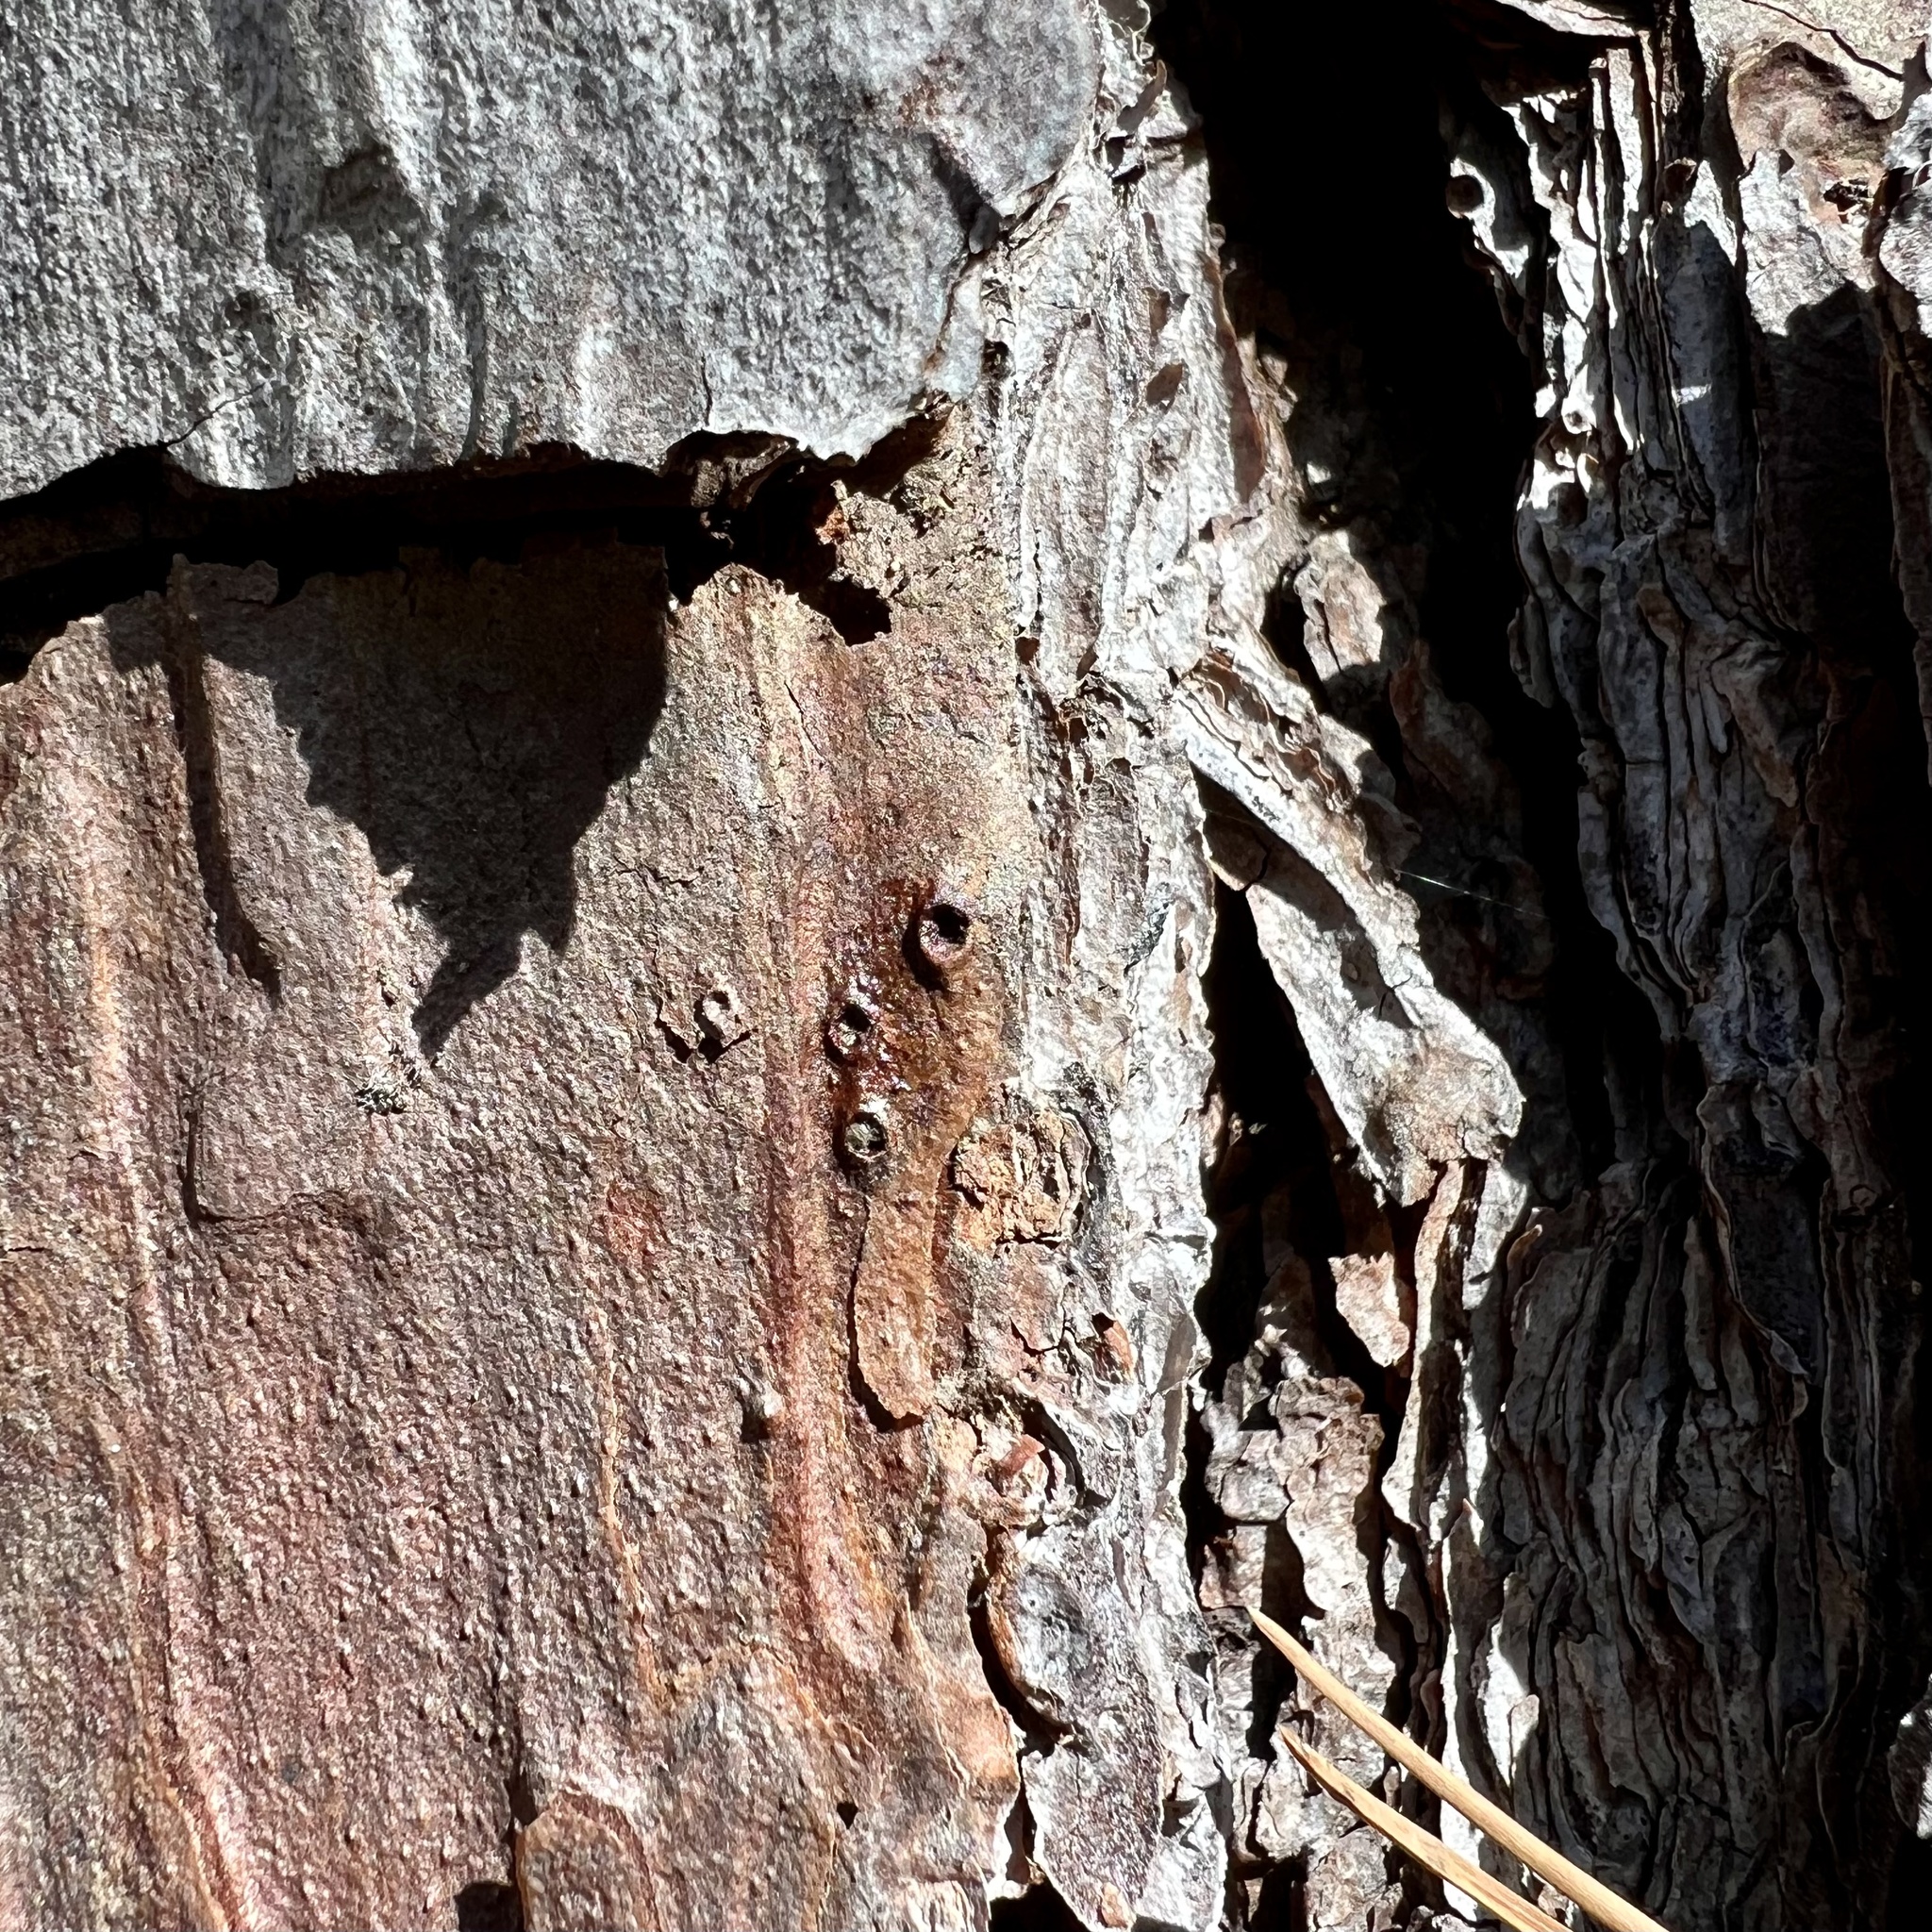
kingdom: Plantae
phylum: Tracheophyta
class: Pinopsida
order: Pinales
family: Pinaceae
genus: Pinus
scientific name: Pinus echinata
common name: Shortleaf pine
